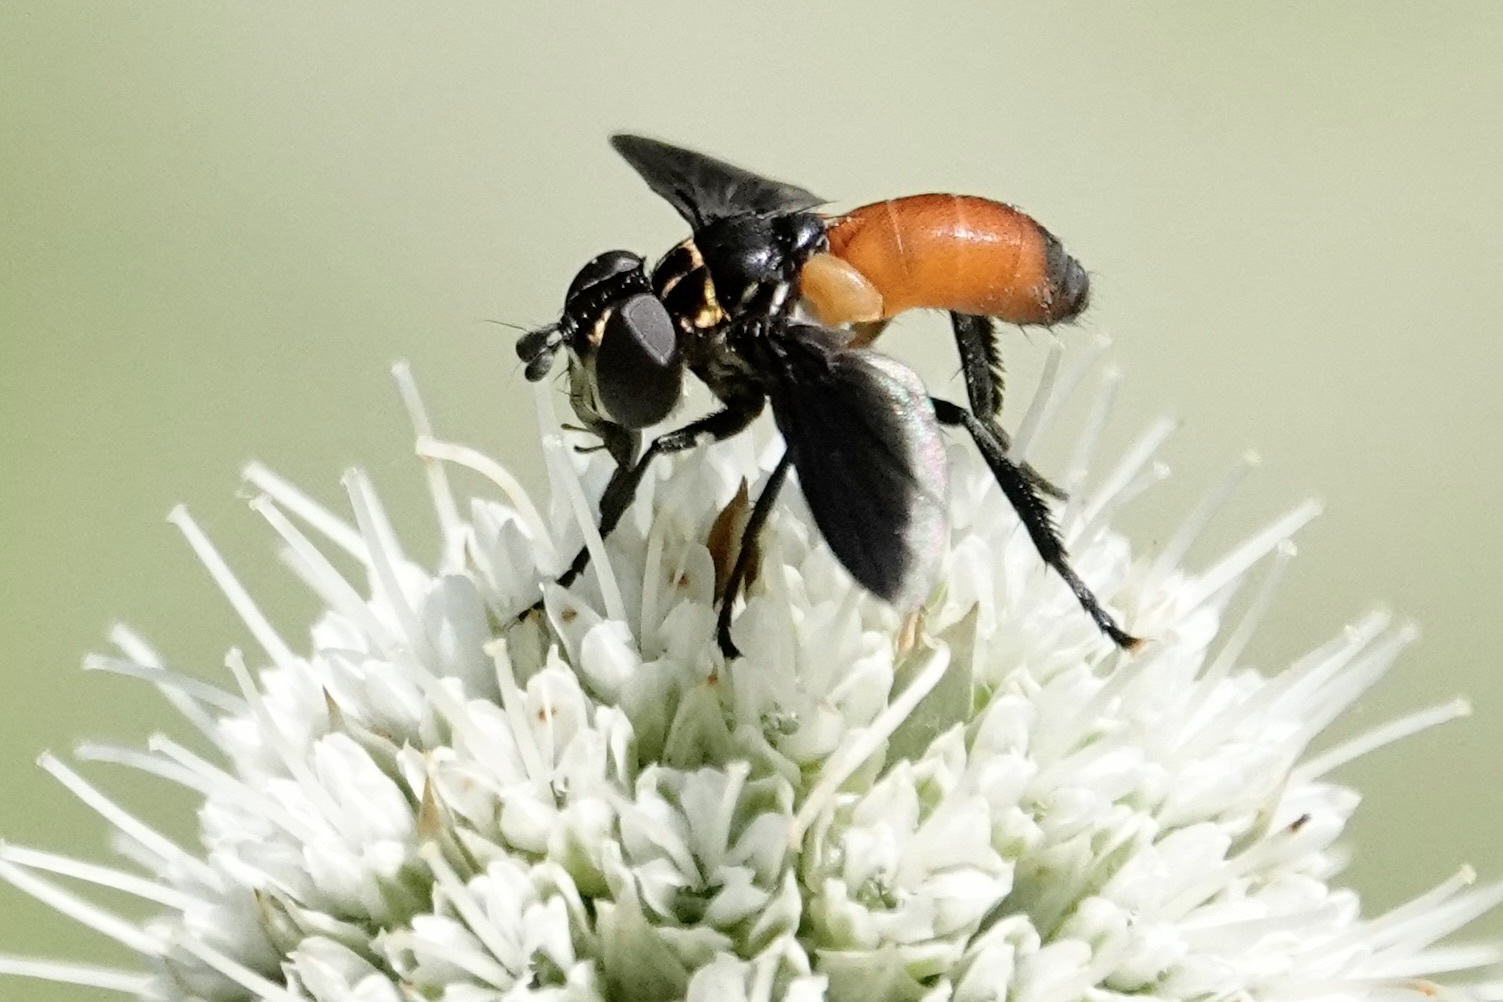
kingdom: Animalia
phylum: Arthropoda
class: Insecta
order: Diptera
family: Tachinidae
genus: Trichopoda
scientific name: Trichopoda pennipes
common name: Tachinid fly
